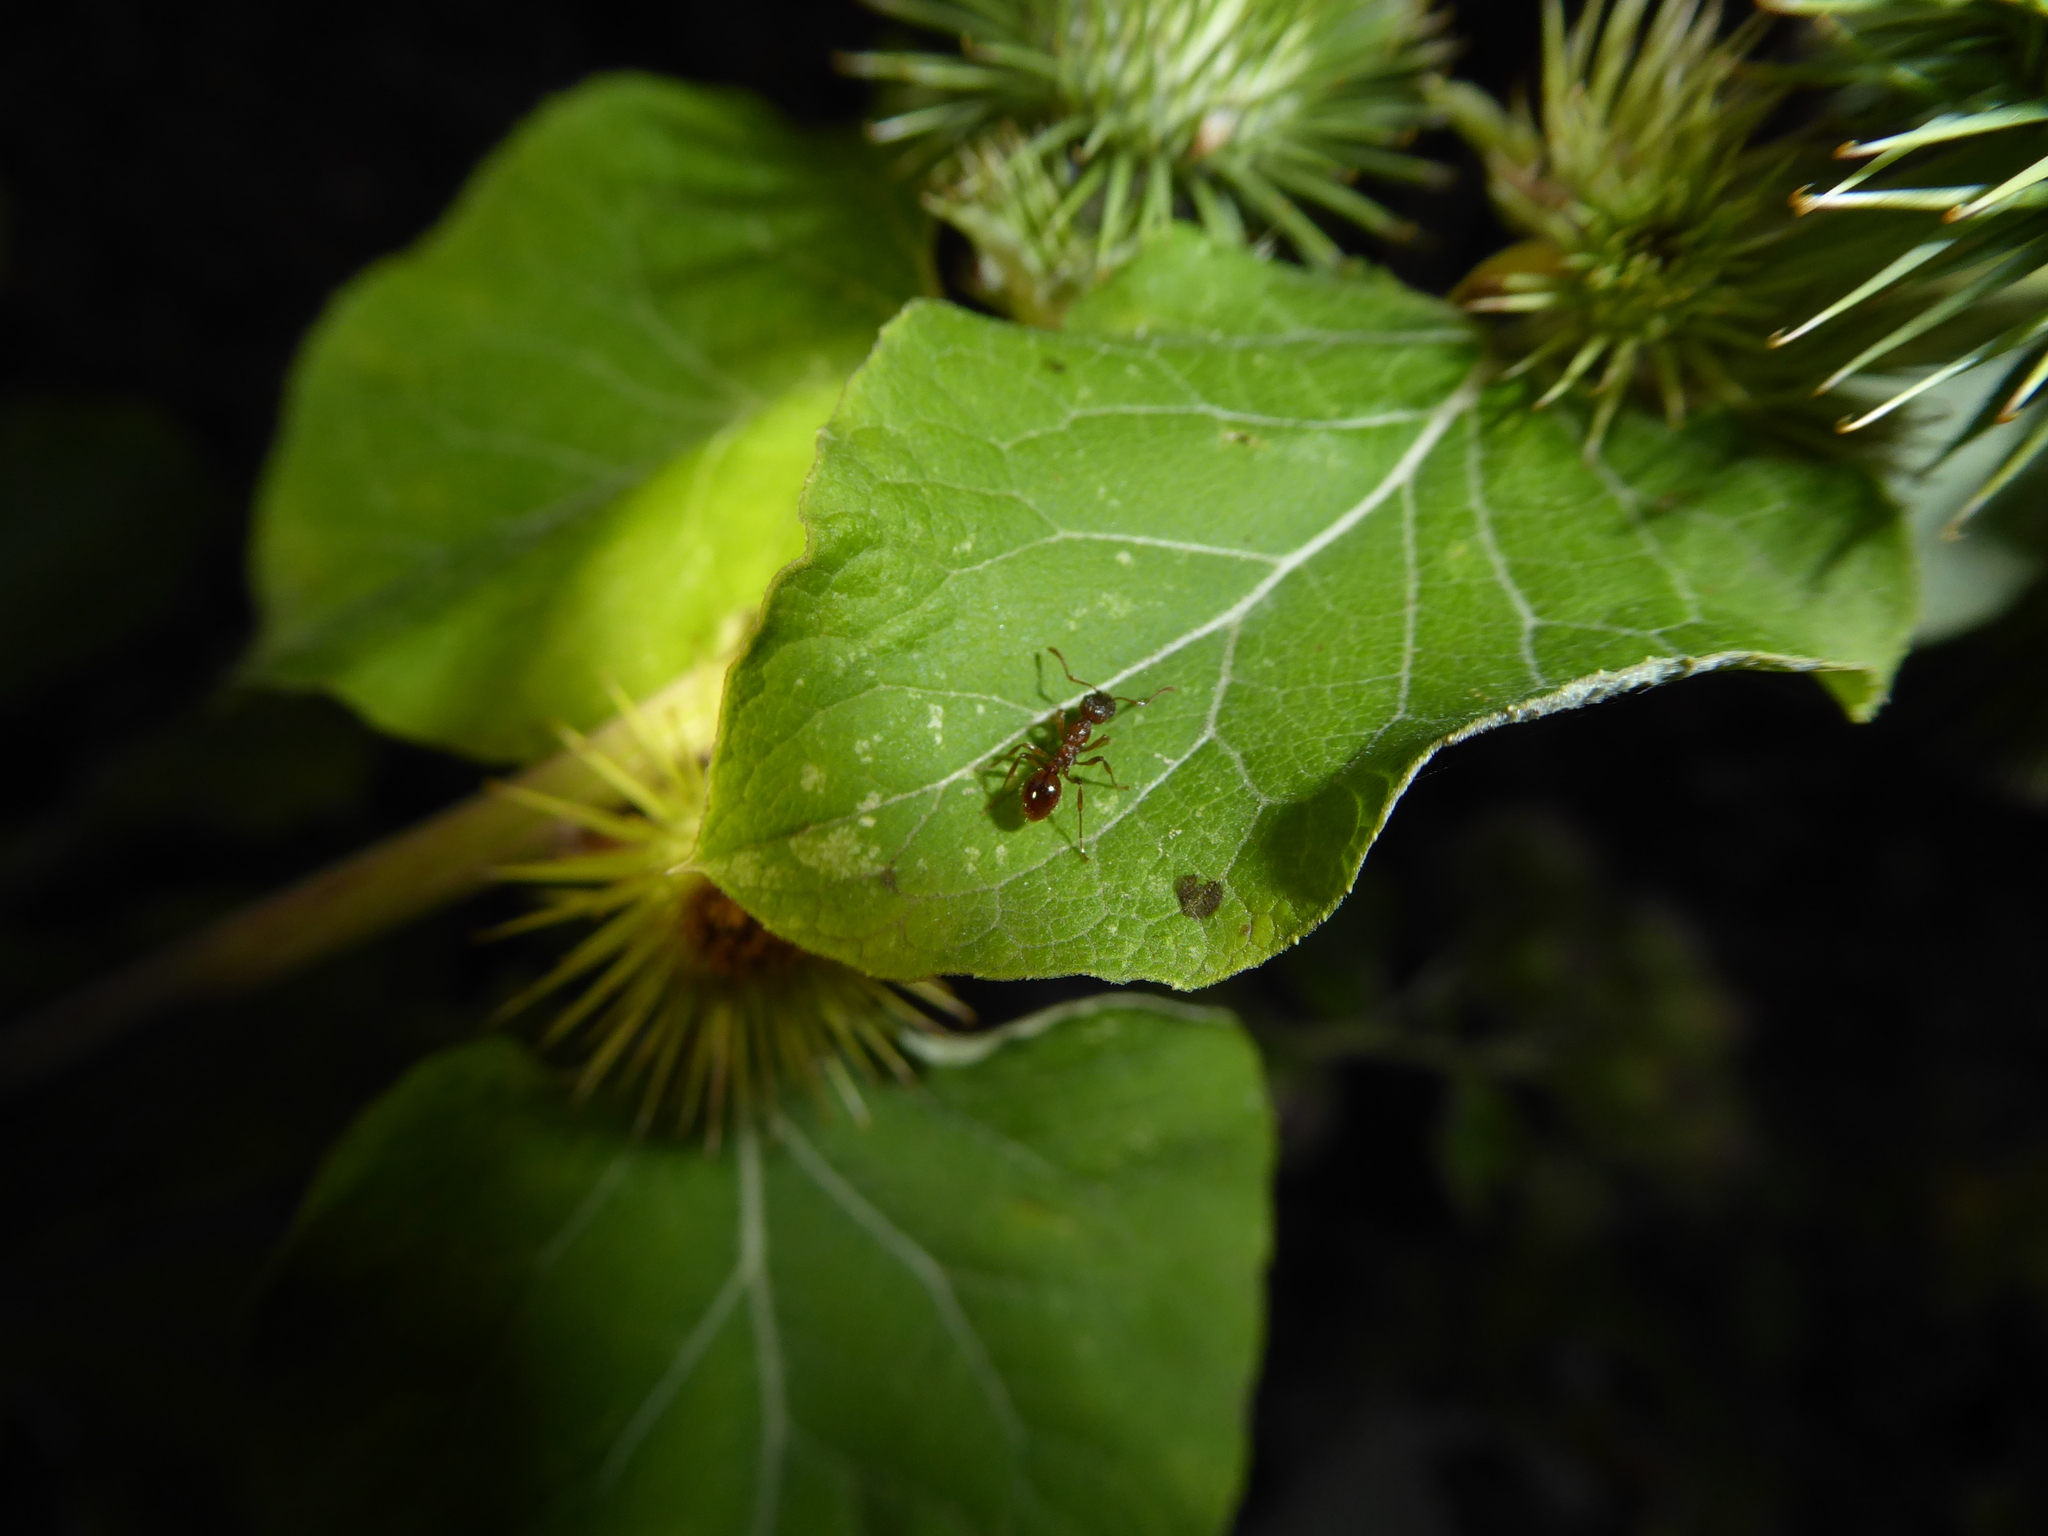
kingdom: Animalia
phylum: Arthropoda
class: Insecta
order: Hymenoptera
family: Formicidae
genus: Myrmica
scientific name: Myrmica
